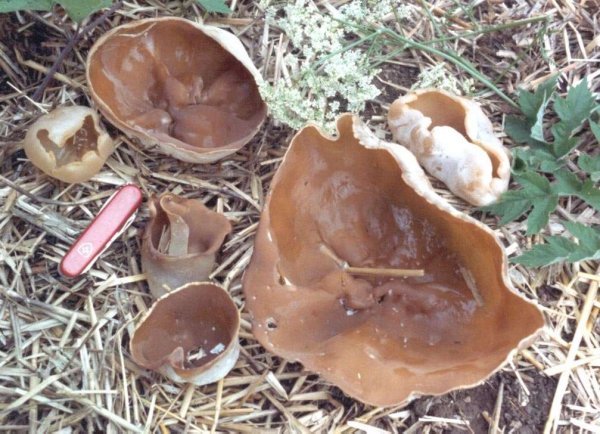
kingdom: Fungi
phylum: Ascomycota
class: Pezizomycetes
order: Pezizales
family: Pezizaceae
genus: Peziza
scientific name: Peziza vesiculosa
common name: Blistered cup
